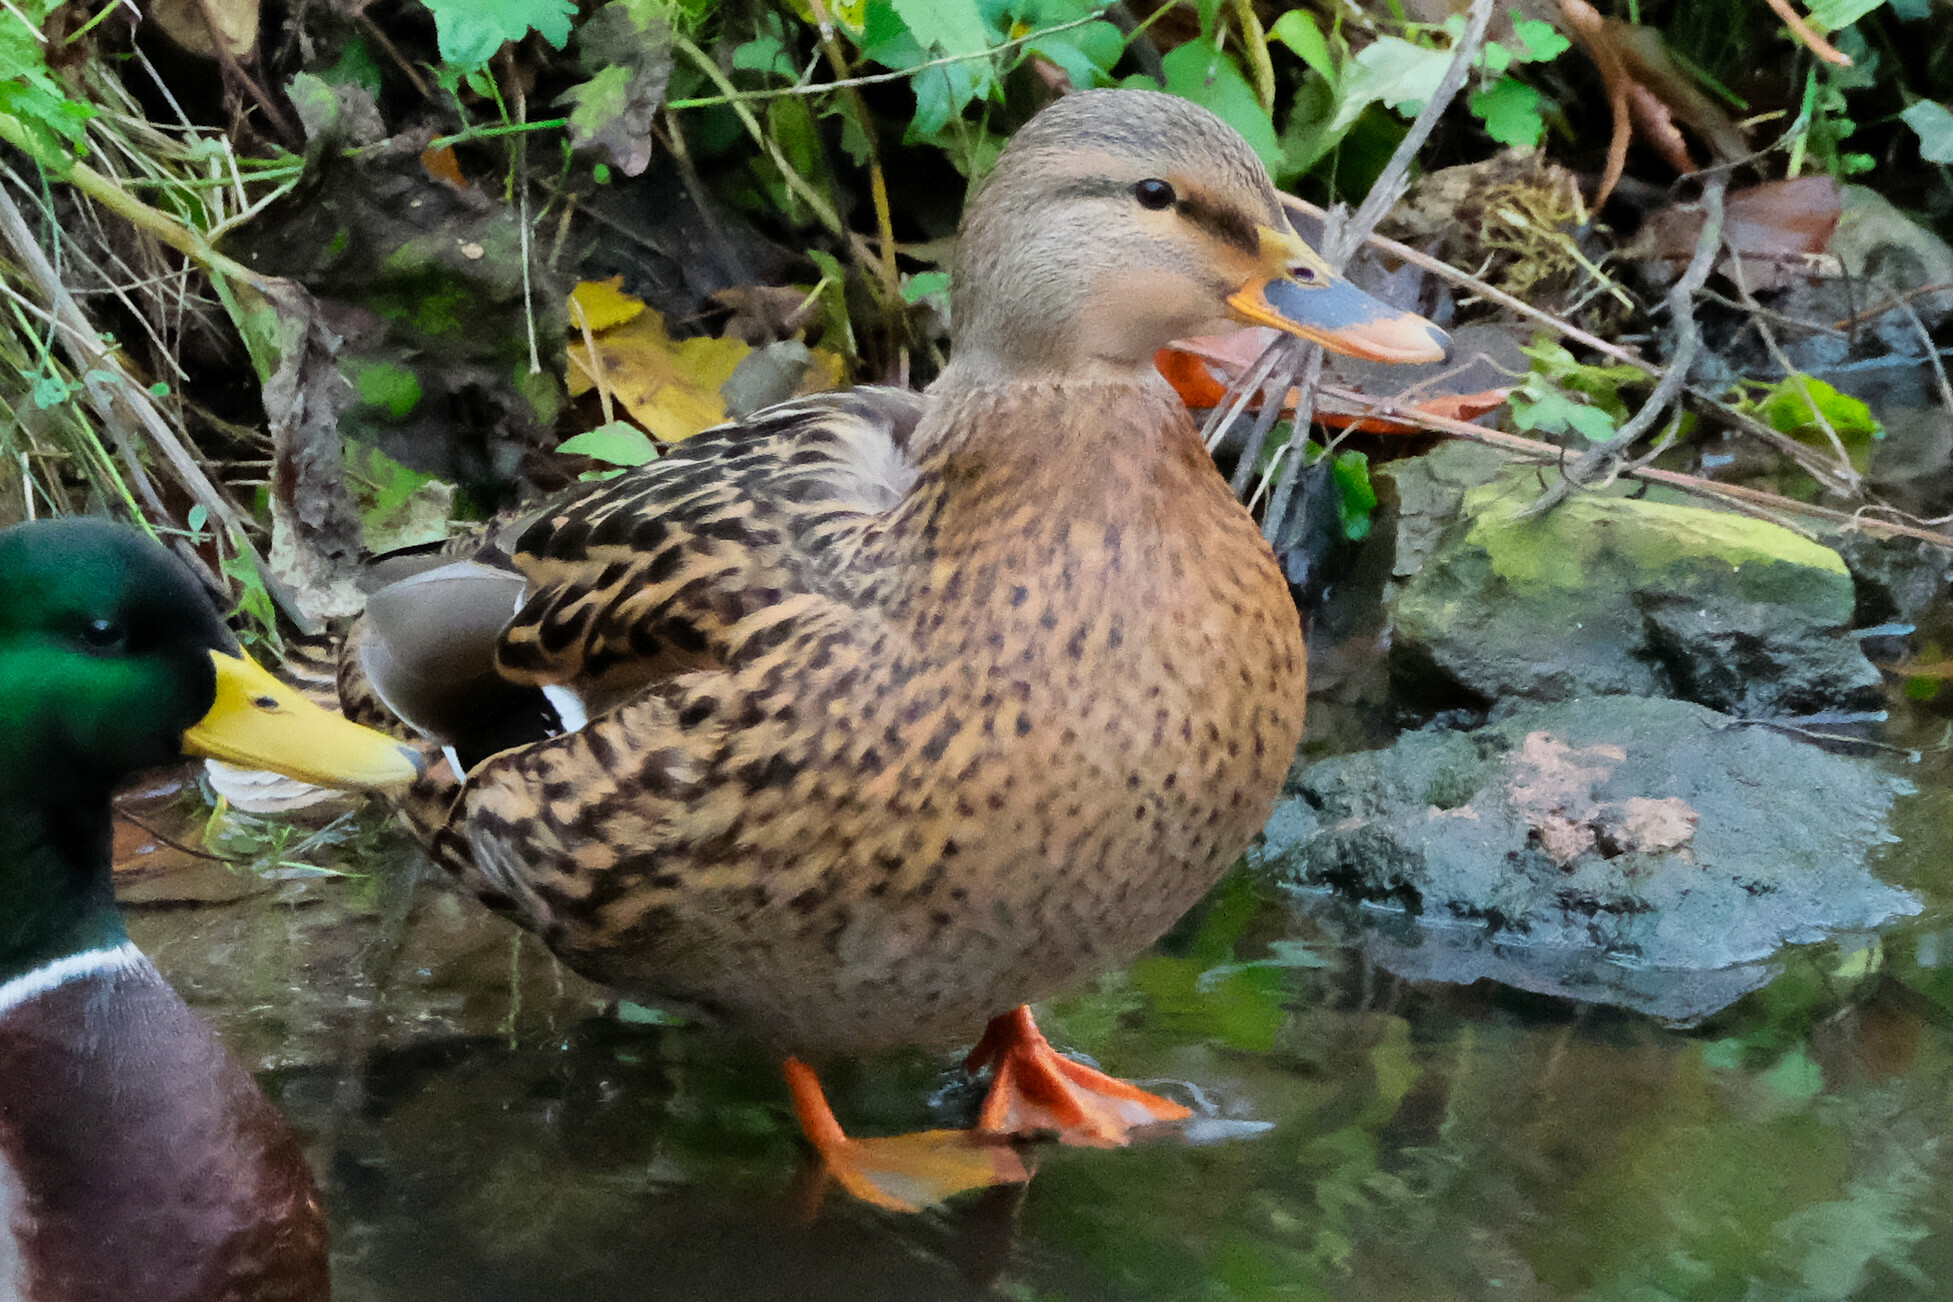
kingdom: Animalia
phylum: Chordata
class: Aves
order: Anseriformes
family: Anatidae
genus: Anas
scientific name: Anas platyrhynchos
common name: Mallard
